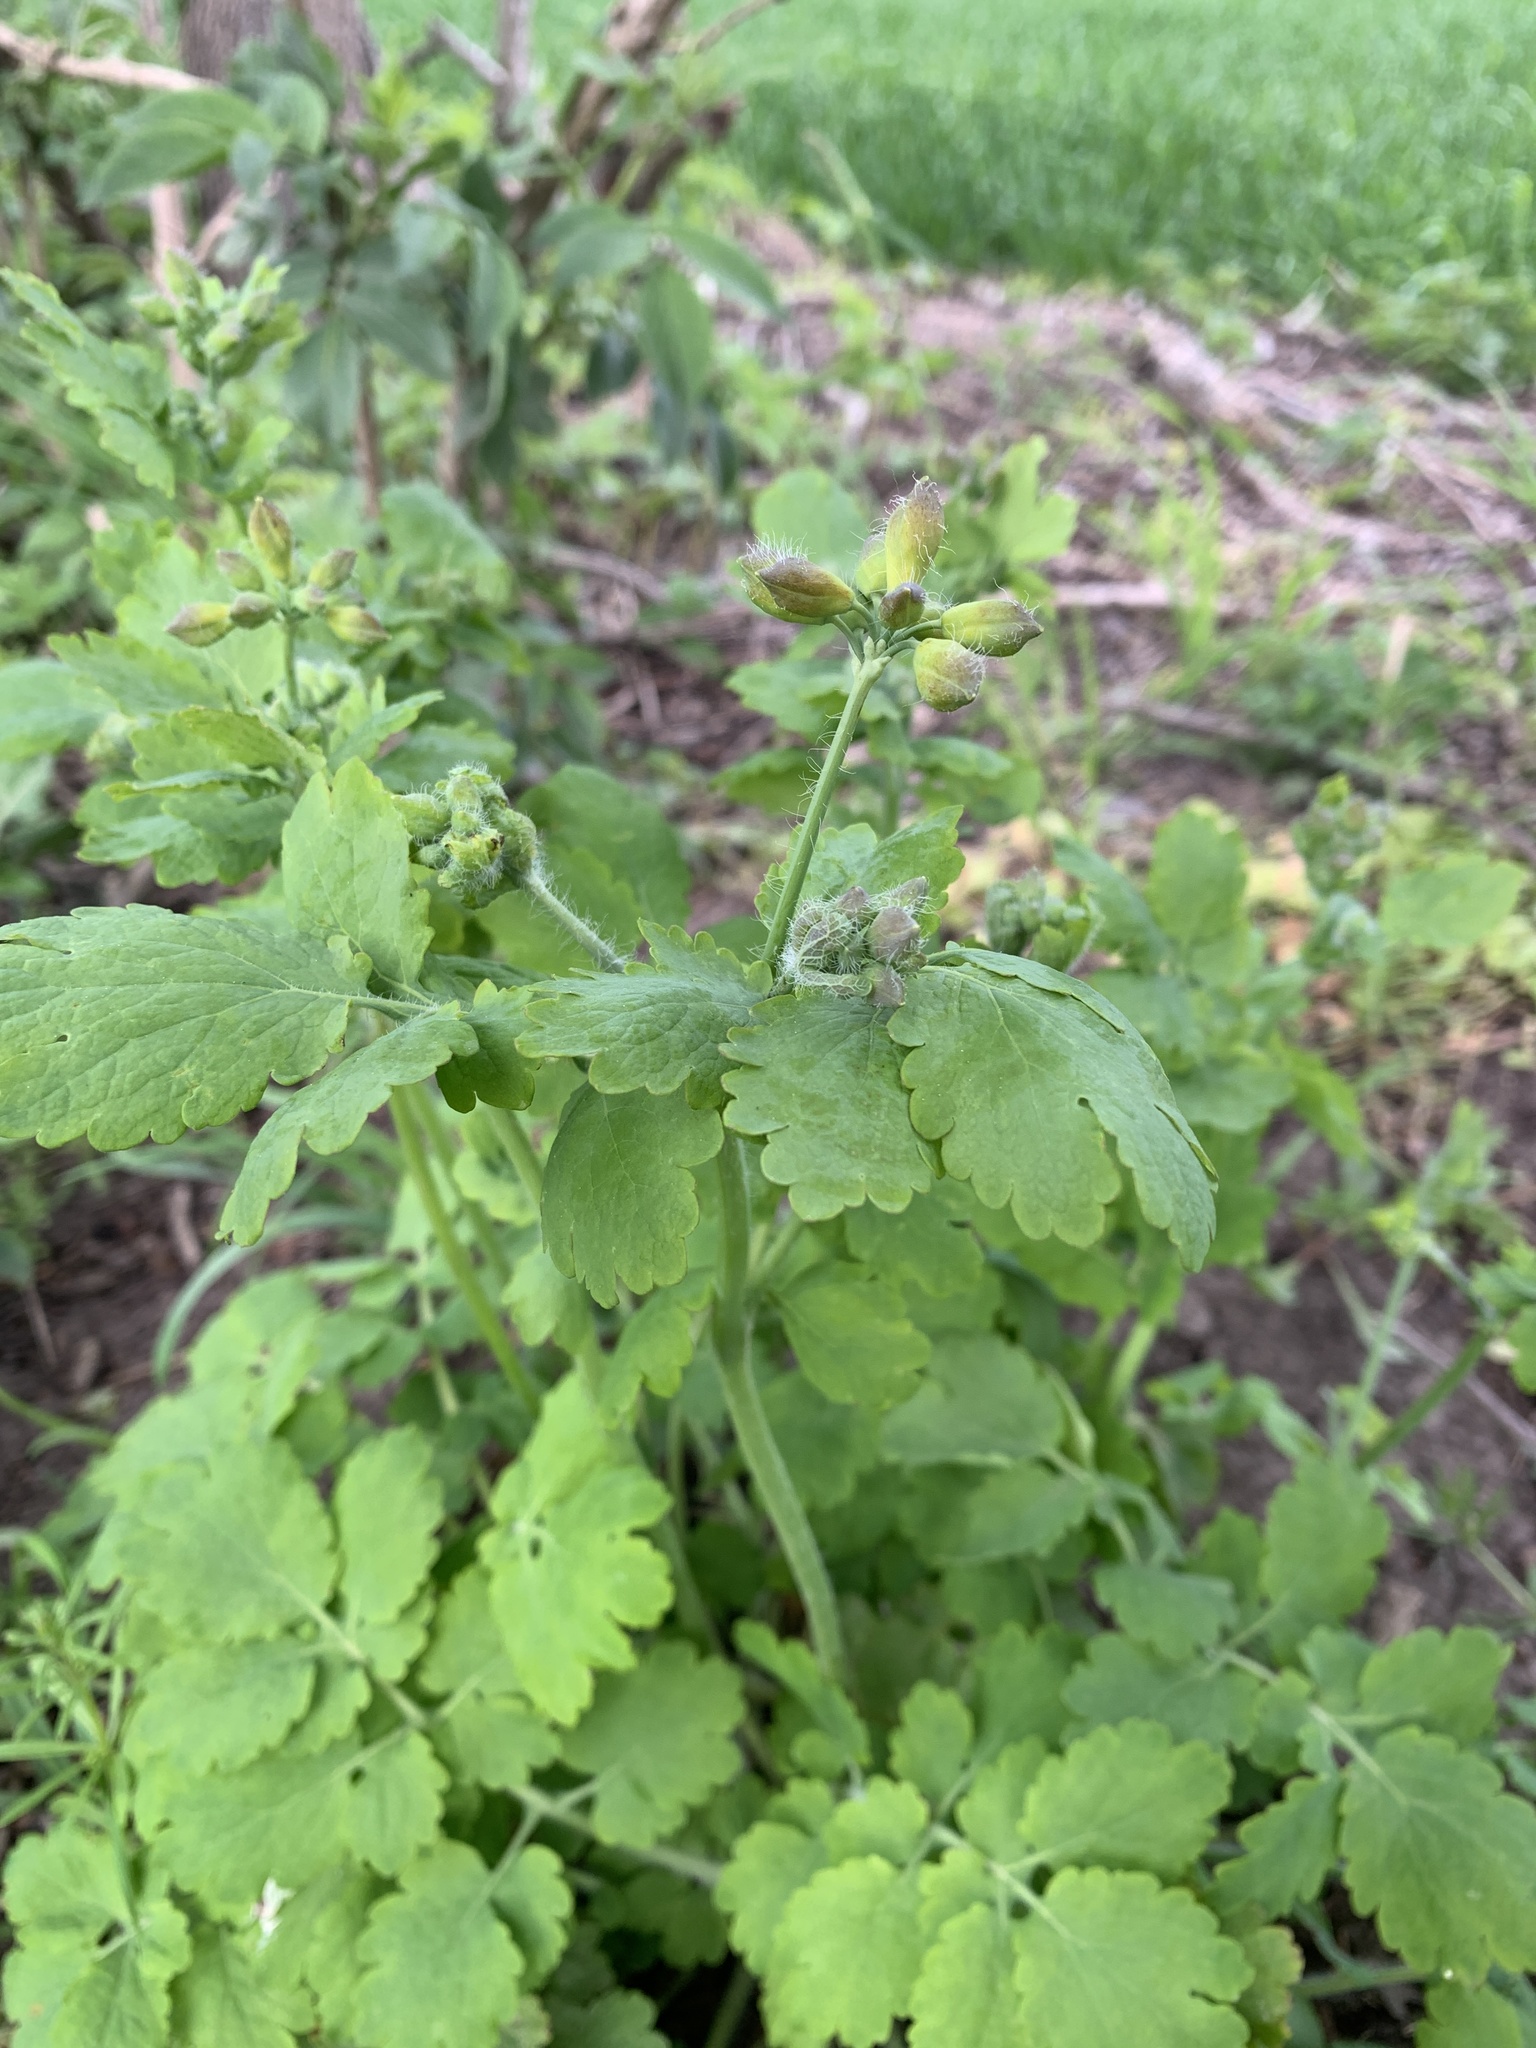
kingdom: Plantae
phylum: Tracheophyta
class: Magnoliopsida
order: Ranunculales
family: Papaveraceae
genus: Chelidonium
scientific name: Chelidonium majus
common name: Greater celandine
